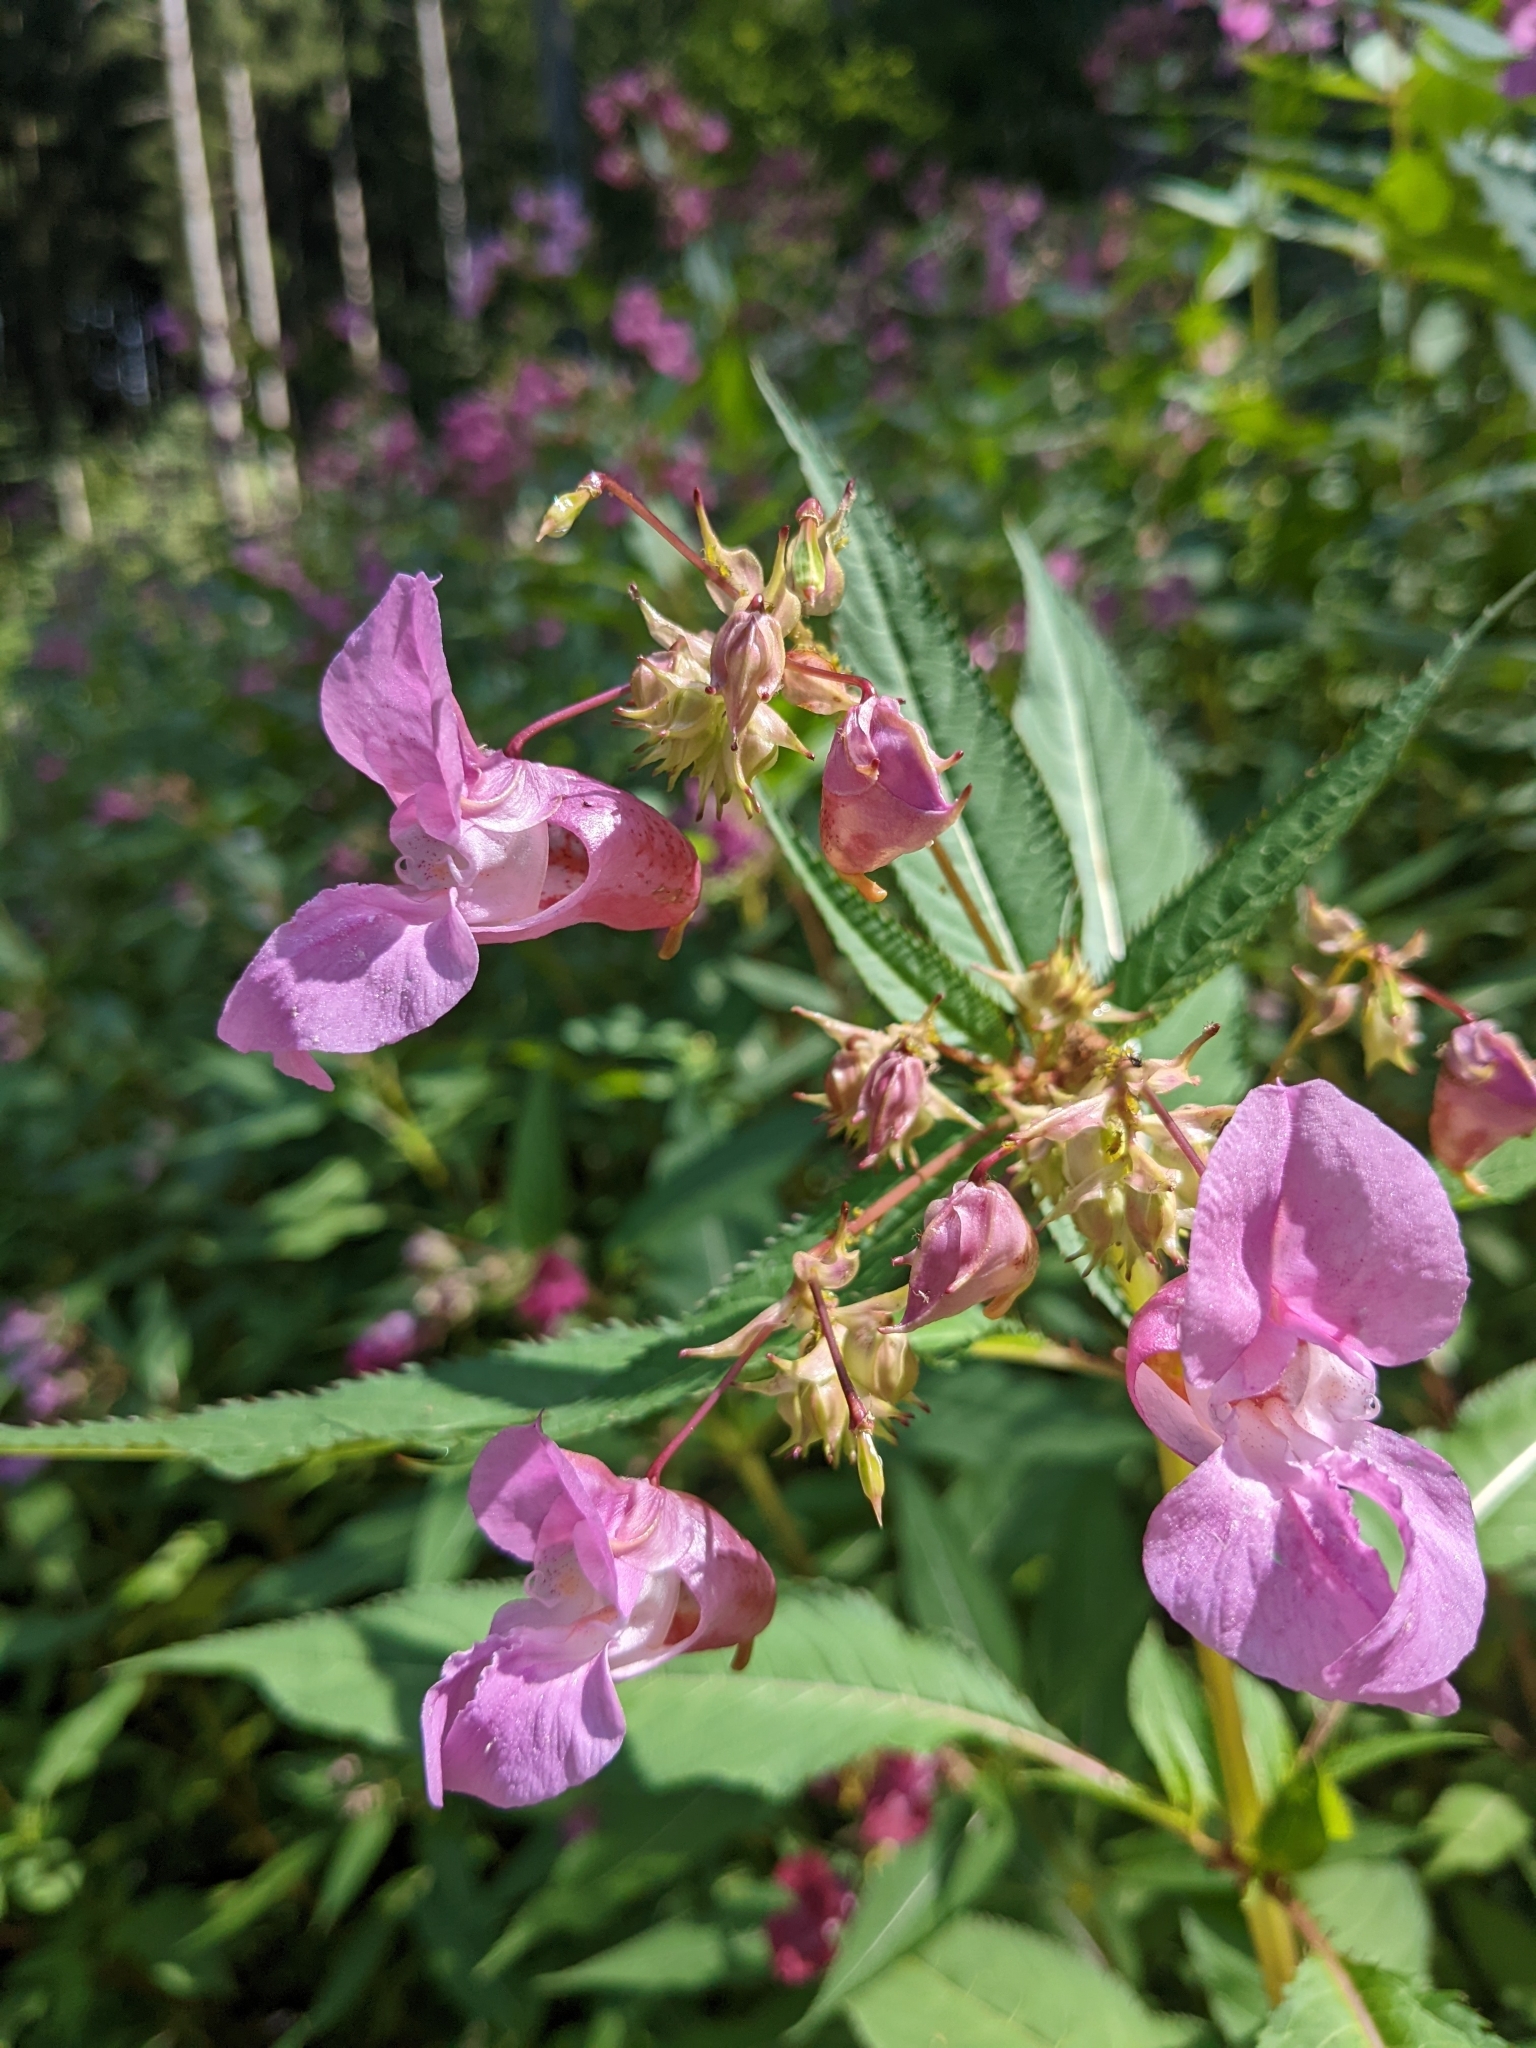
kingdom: Plantae
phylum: Tracheophyta
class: Magnoliopsida
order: Ericales
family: Balsaminaceae
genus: Impatiens
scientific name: Impatiens glandulifera
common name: Himalayan balsam
